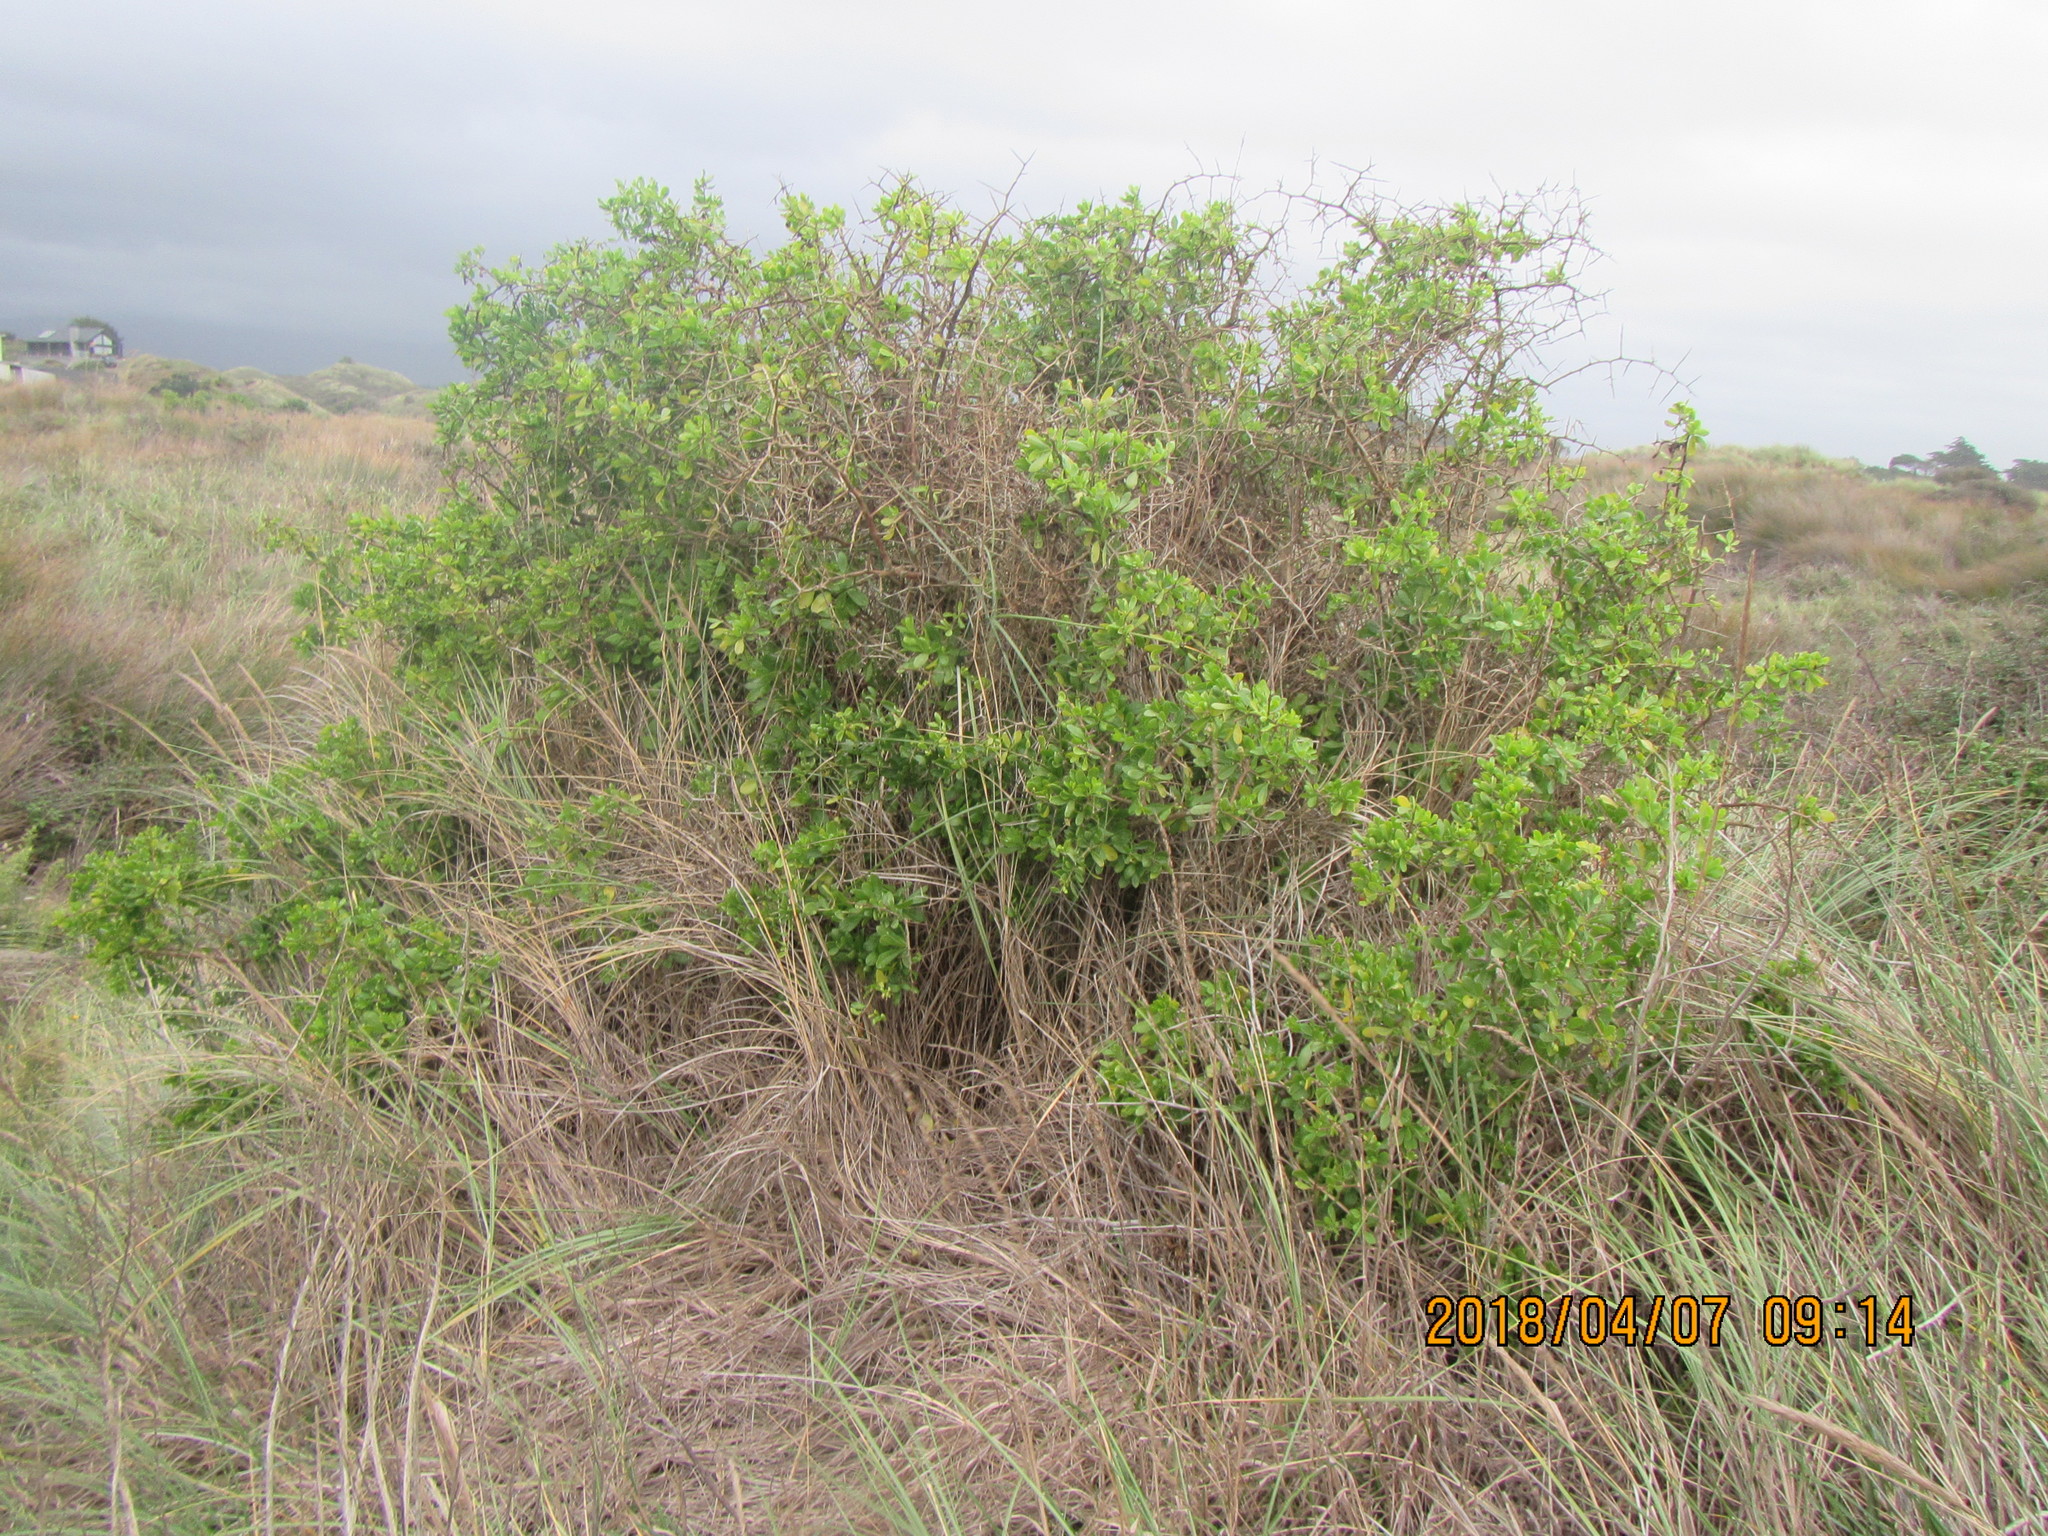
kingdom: Plantae
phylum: Tracheophyta
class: Magnoliopsida
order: Solanales
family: Solanaceae
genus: Lycium
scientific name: Lycium ferocissimum
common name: African boxthorn
